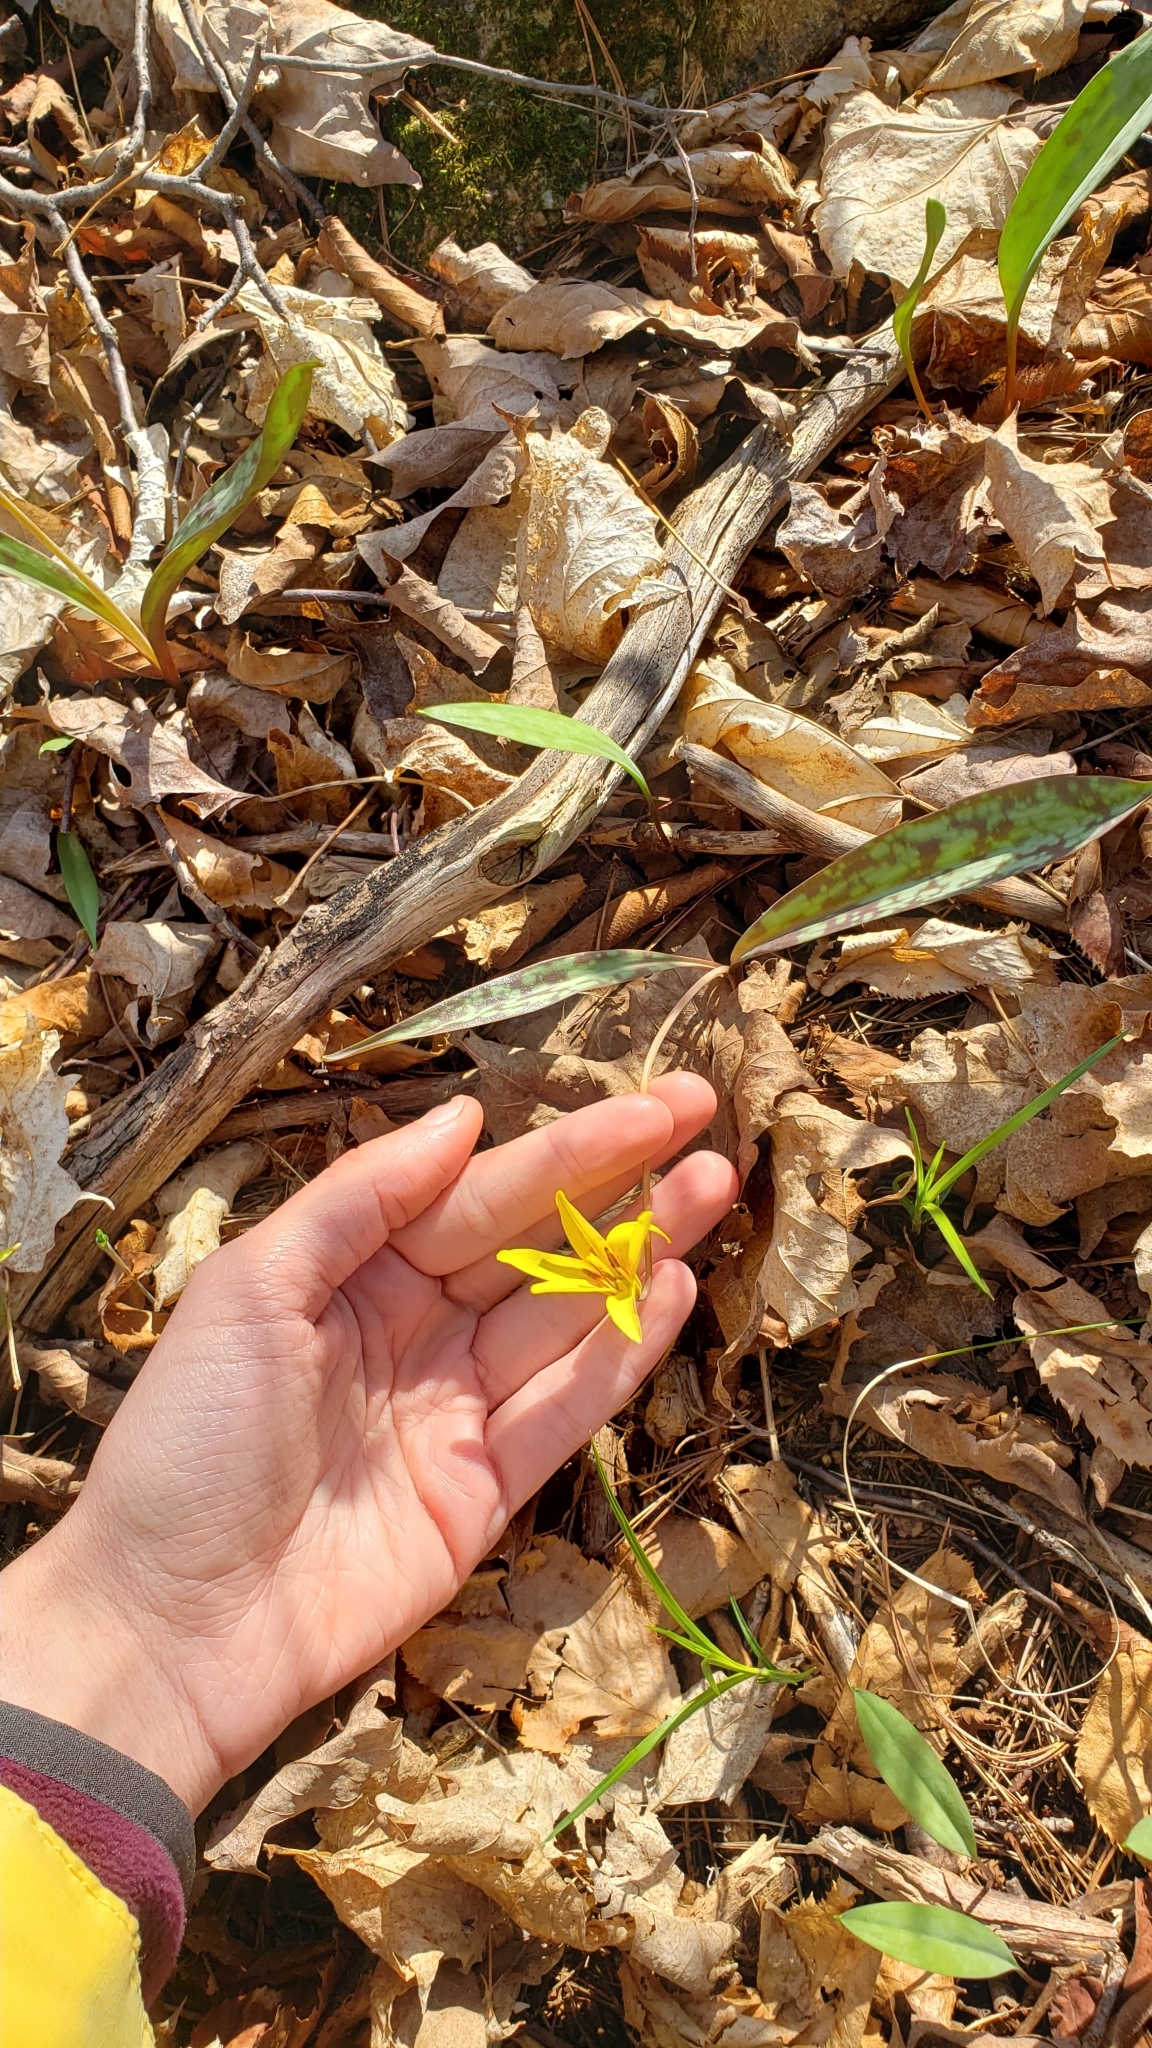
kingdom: Plantae
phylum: Tracheophyta
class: Liliopsida
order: Liliales
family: Liliaceae
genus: Erythronium
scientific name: Erythronium americanum
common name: Yellow adder's-tongue
